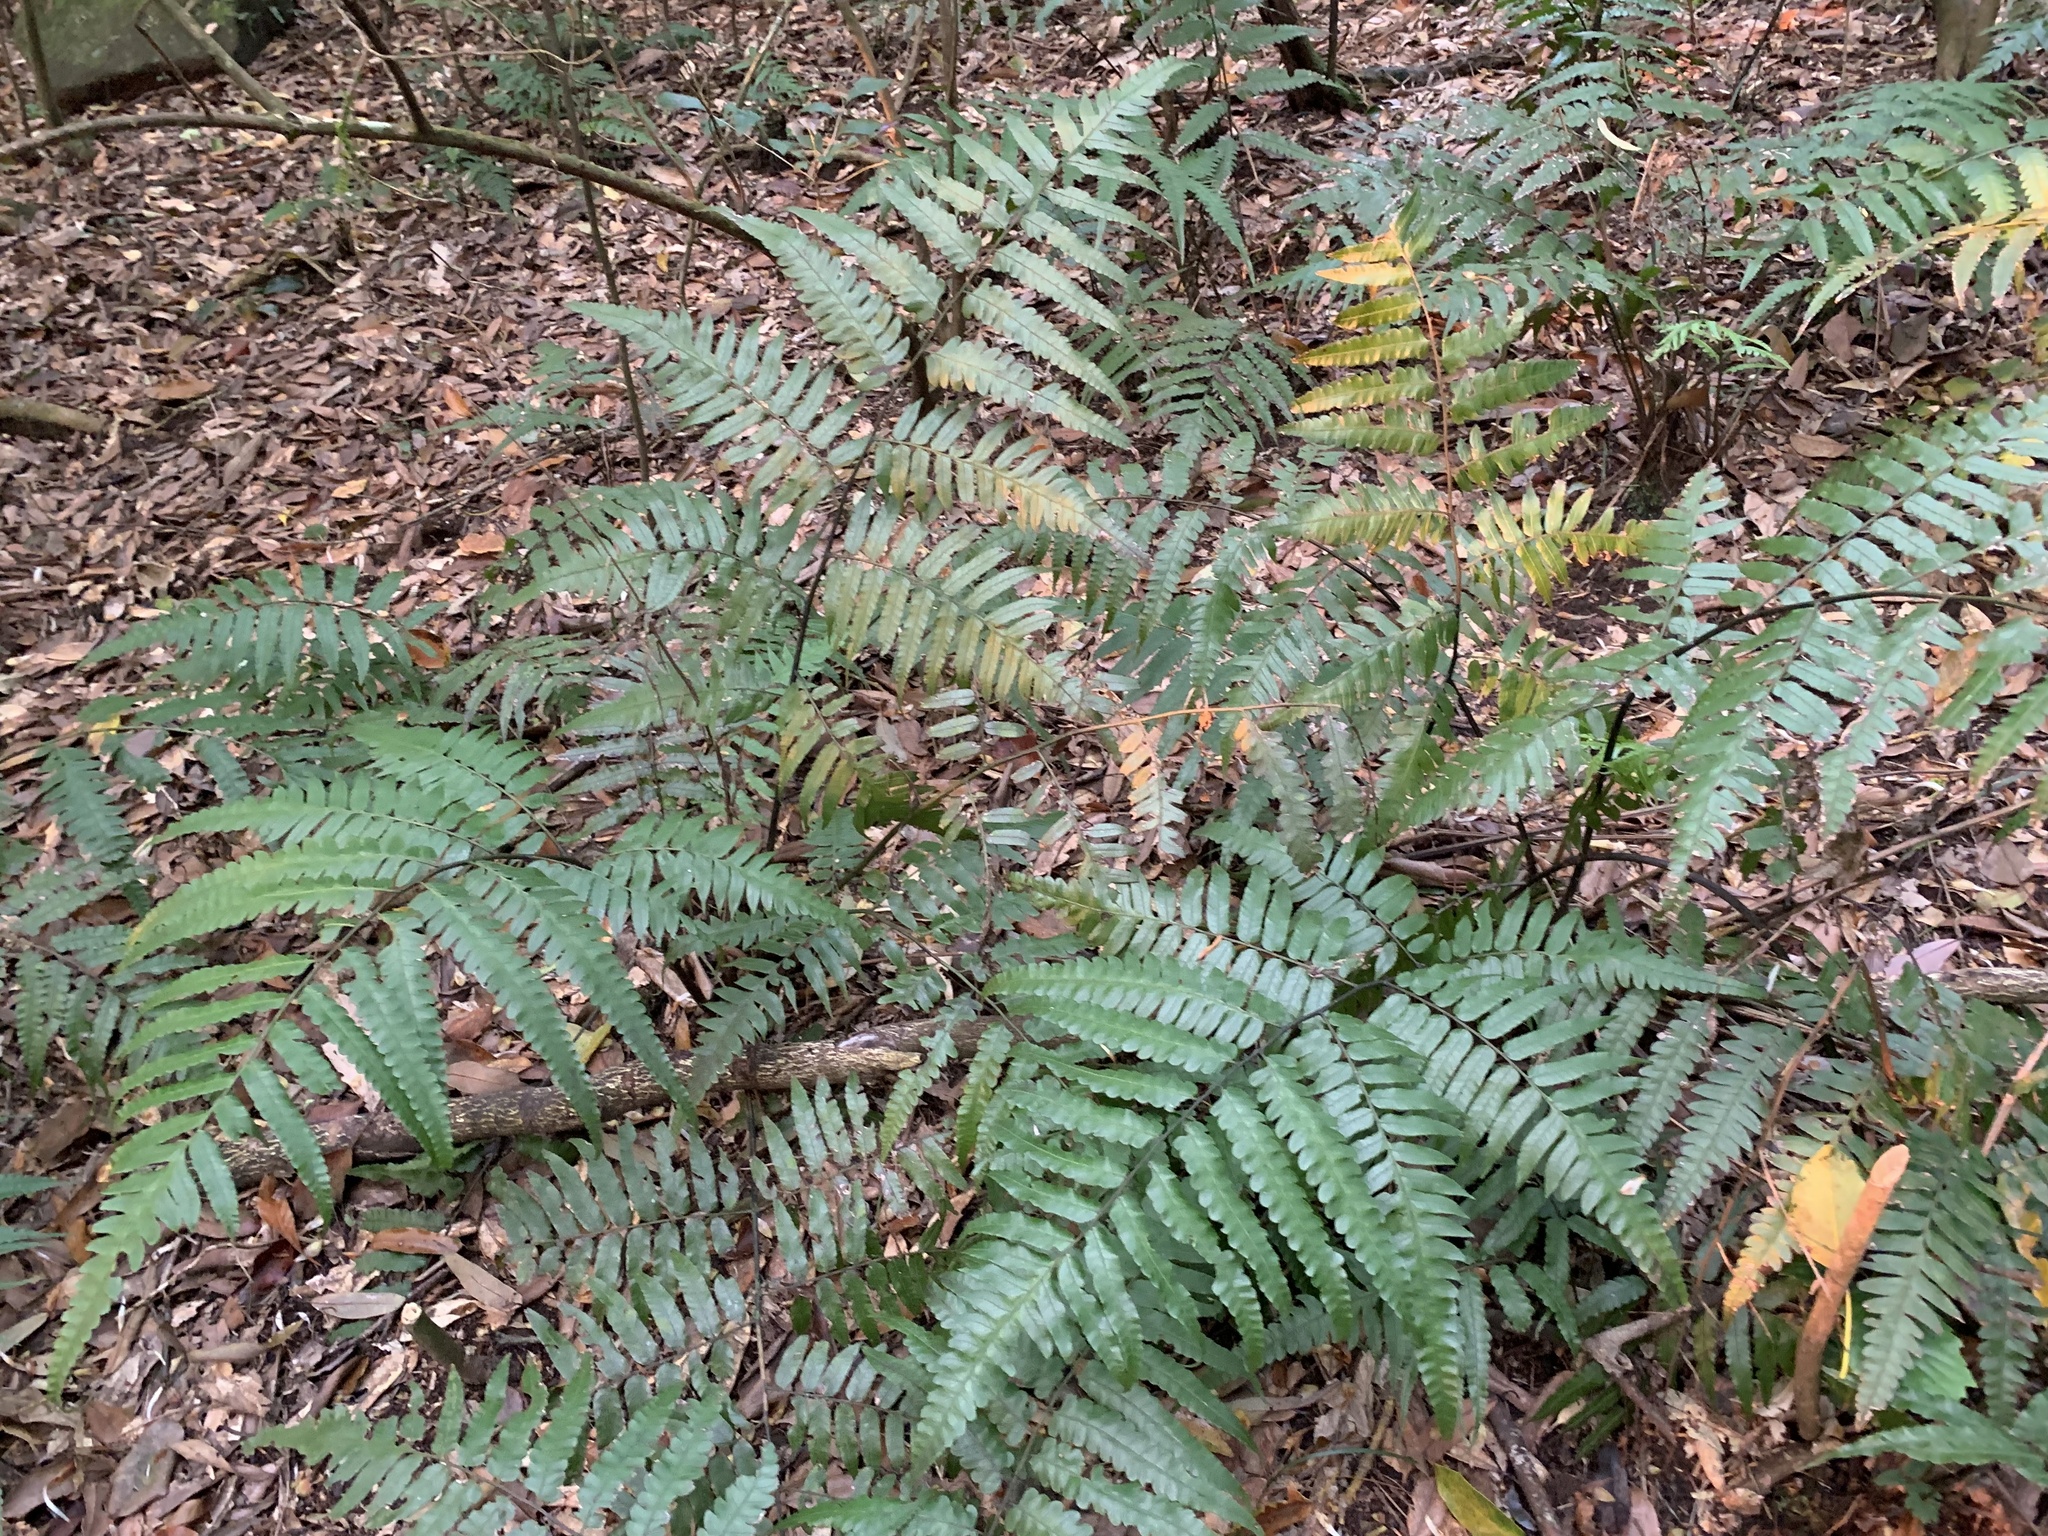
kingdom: Plantae
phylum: Tracheophyta
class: Polypodiopsida
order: Polypodiales
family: Athyriaceae
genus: Diplazium
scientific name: Diplazium dilatatum
